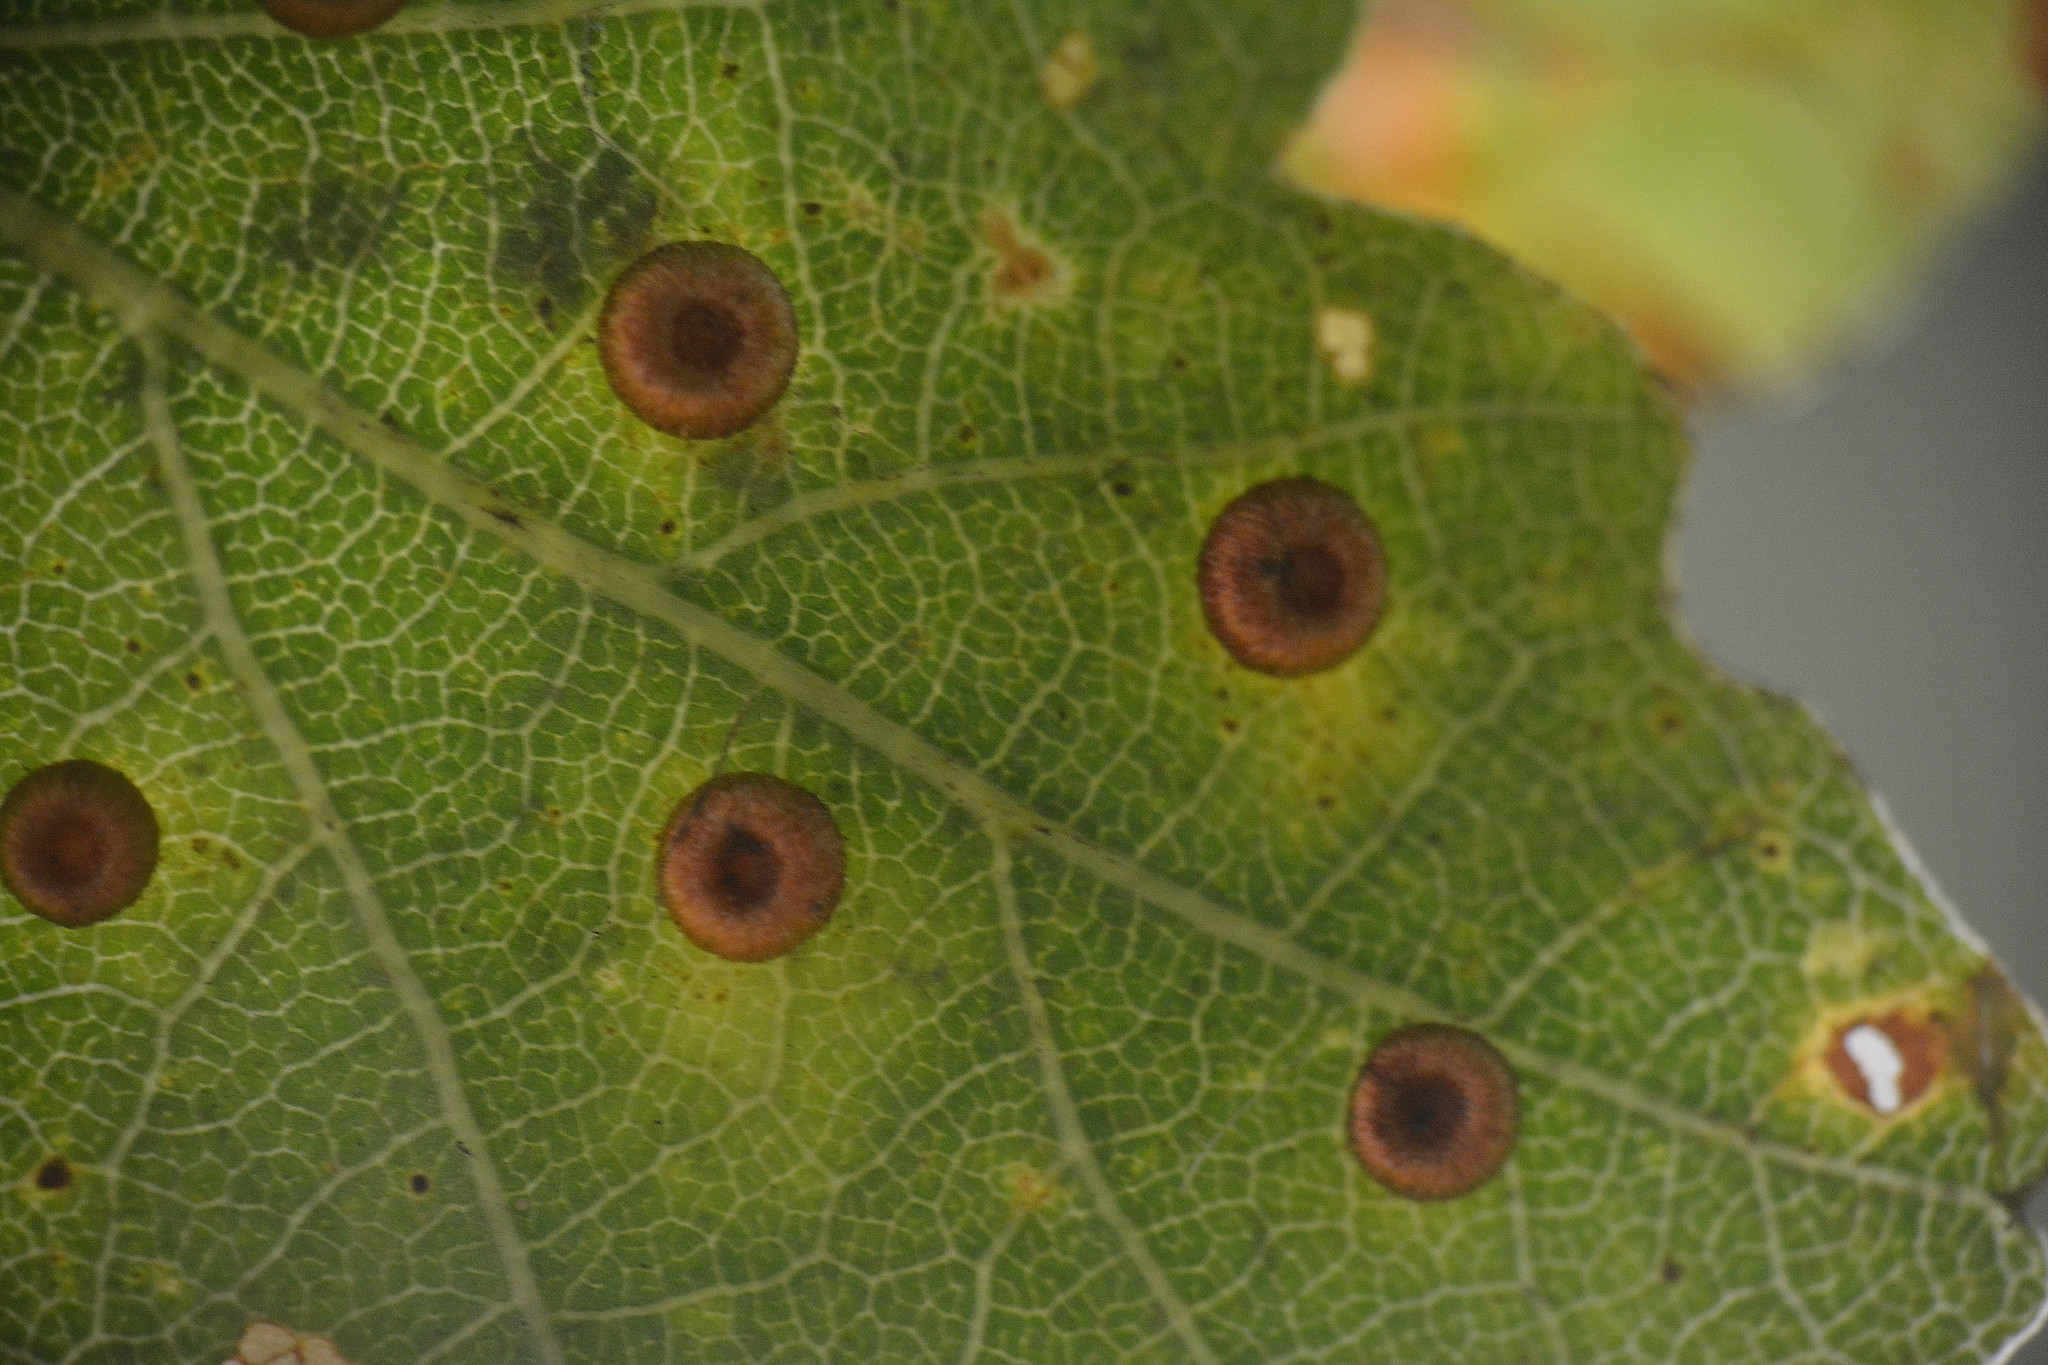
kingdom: Animalia
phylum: Arthropoda
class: Insecta
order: Hymenoptera
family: Cynipidae
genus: Neuroterus
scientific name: Neuroterus numismalis
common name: Silk-button spangle gall
